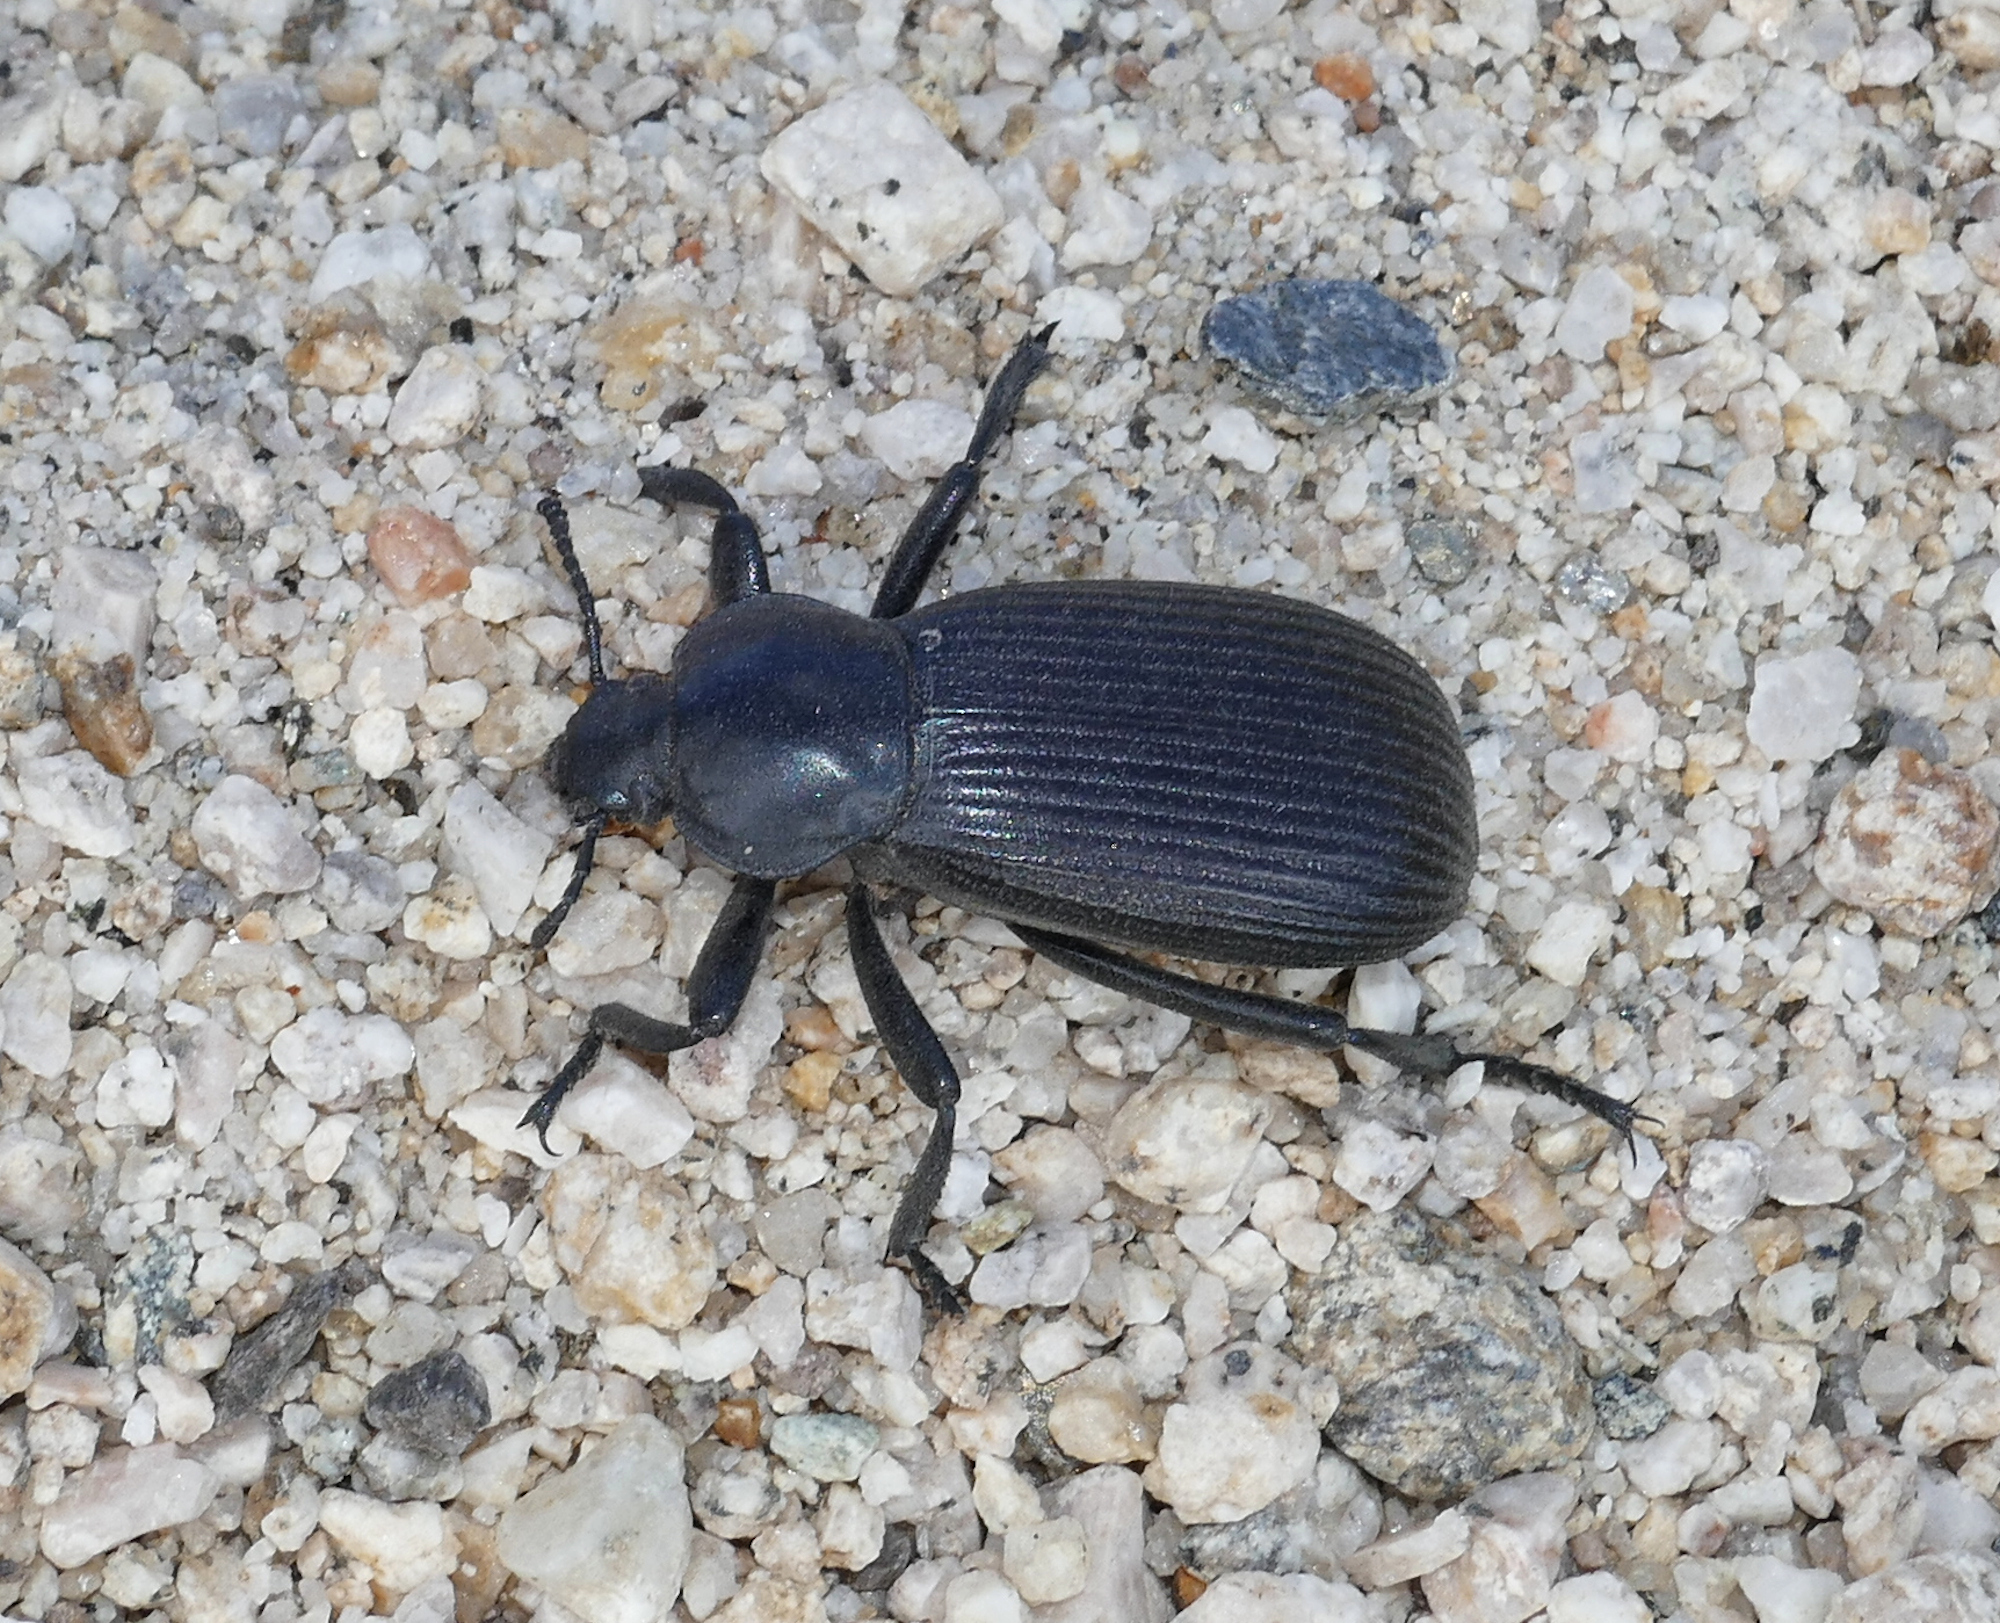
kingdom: Animalia
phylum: Arthropoda
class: Insecta
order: Coleoptera
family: Tenebrionidae
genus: Eleodes
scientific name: Eleodes obscura
